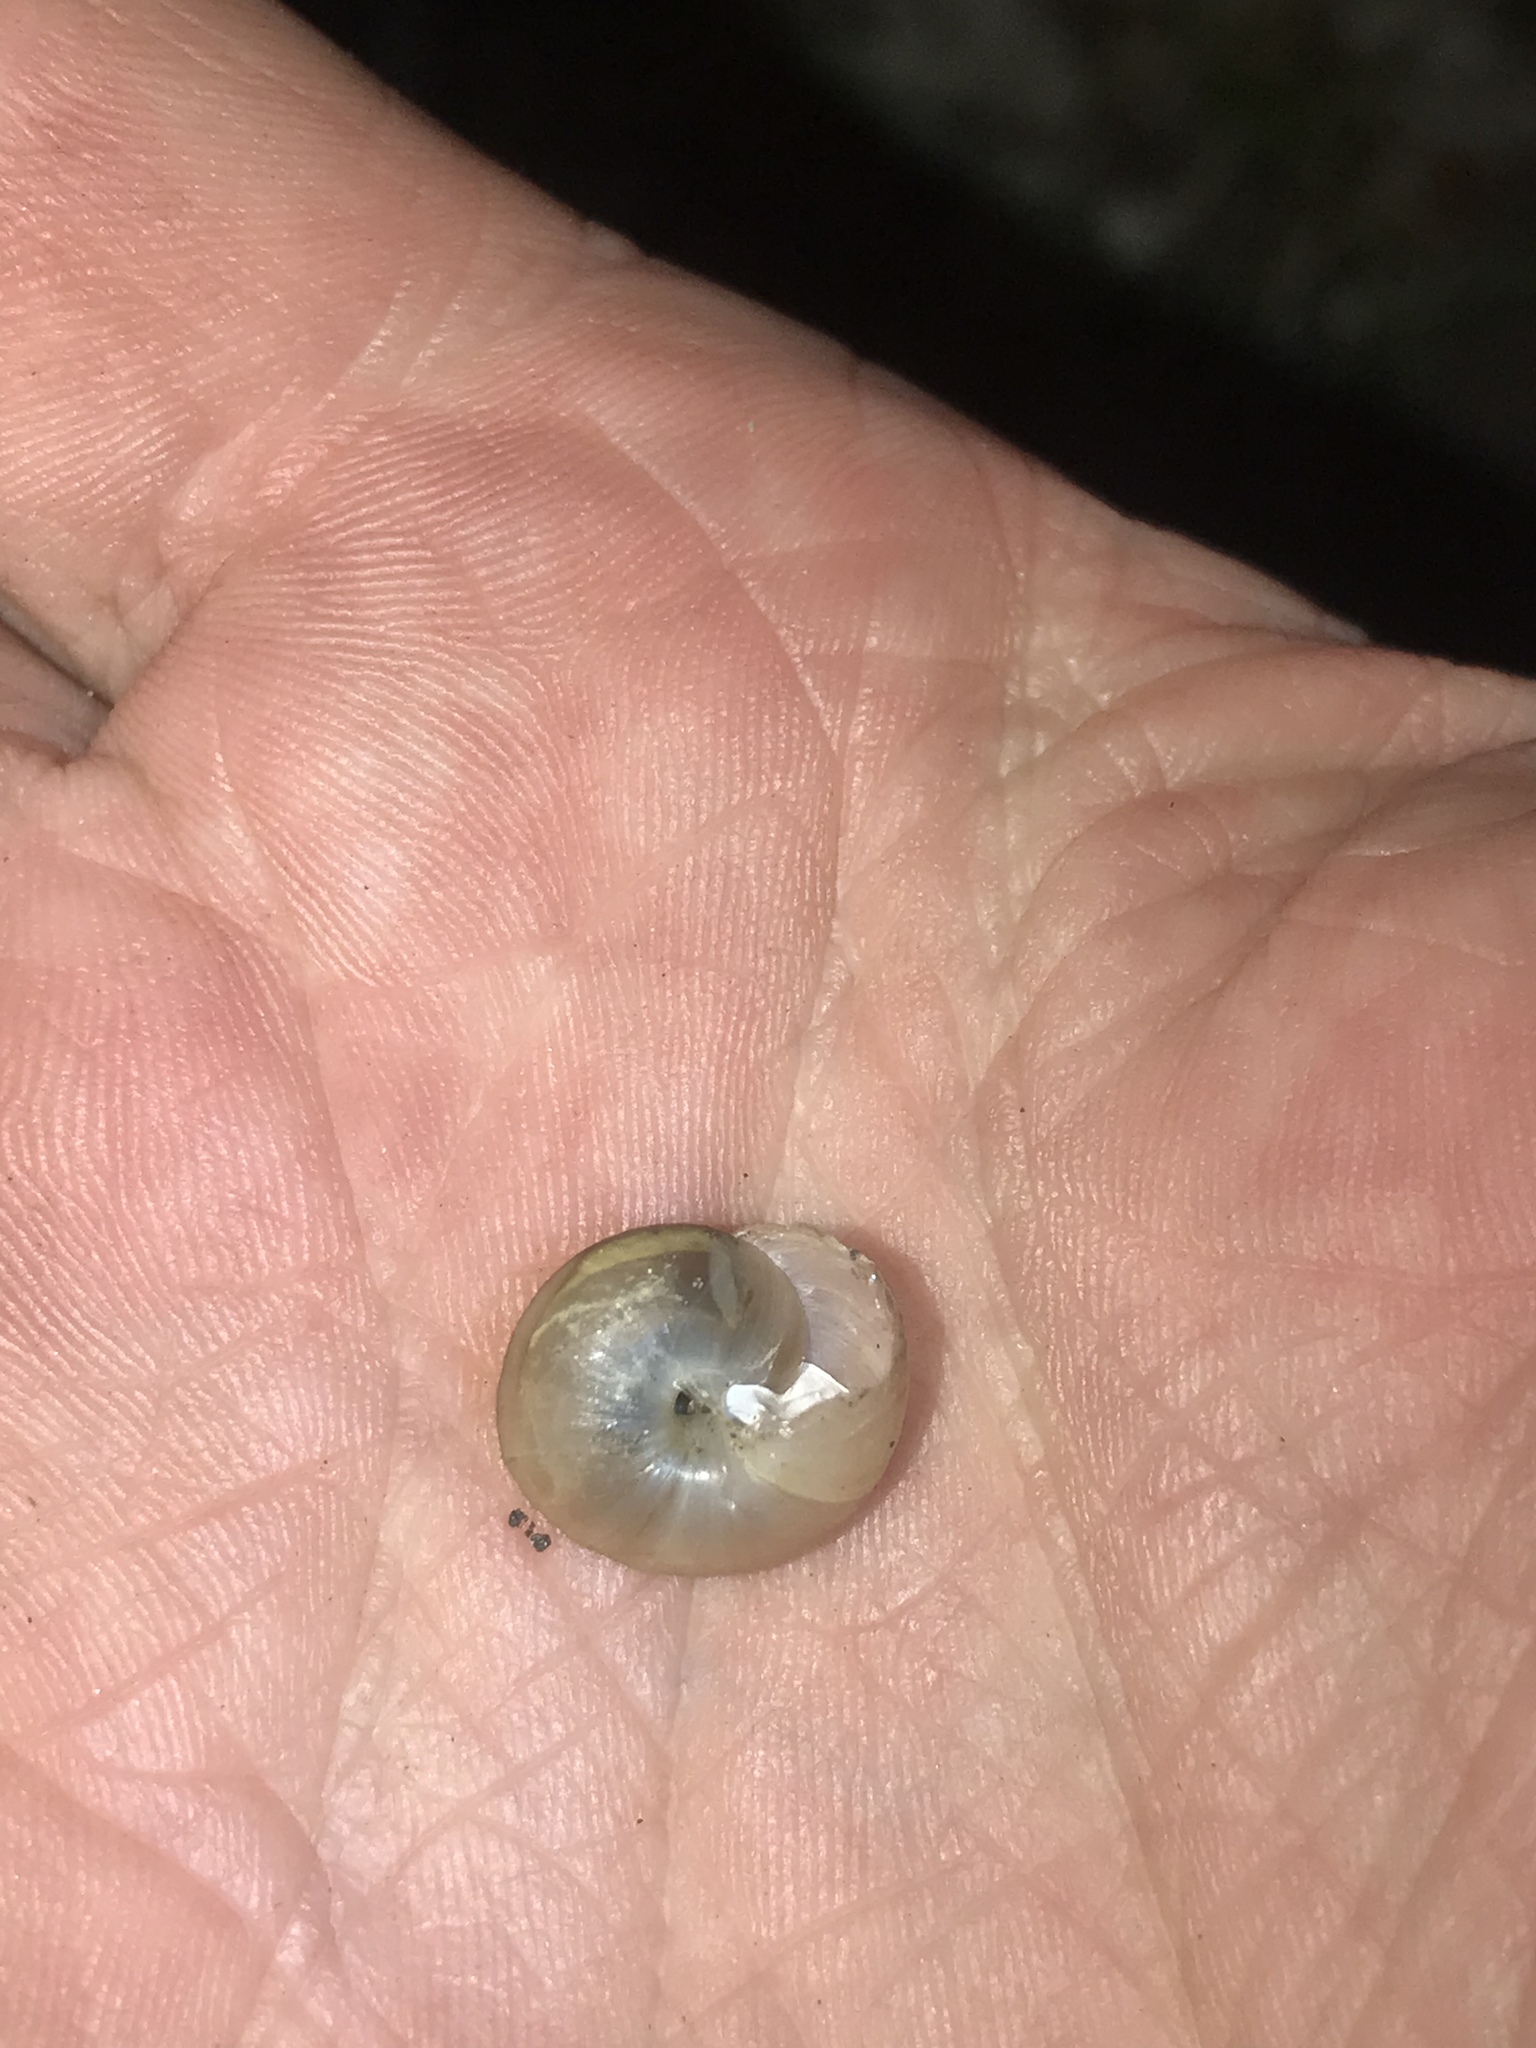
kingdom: Animalia
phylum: Mollusca
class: Gastropoda
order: Stylommatophora
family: Camaenidae
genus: Bradybaena
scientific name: Bradybaena similaris
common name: Asian trampsnail
